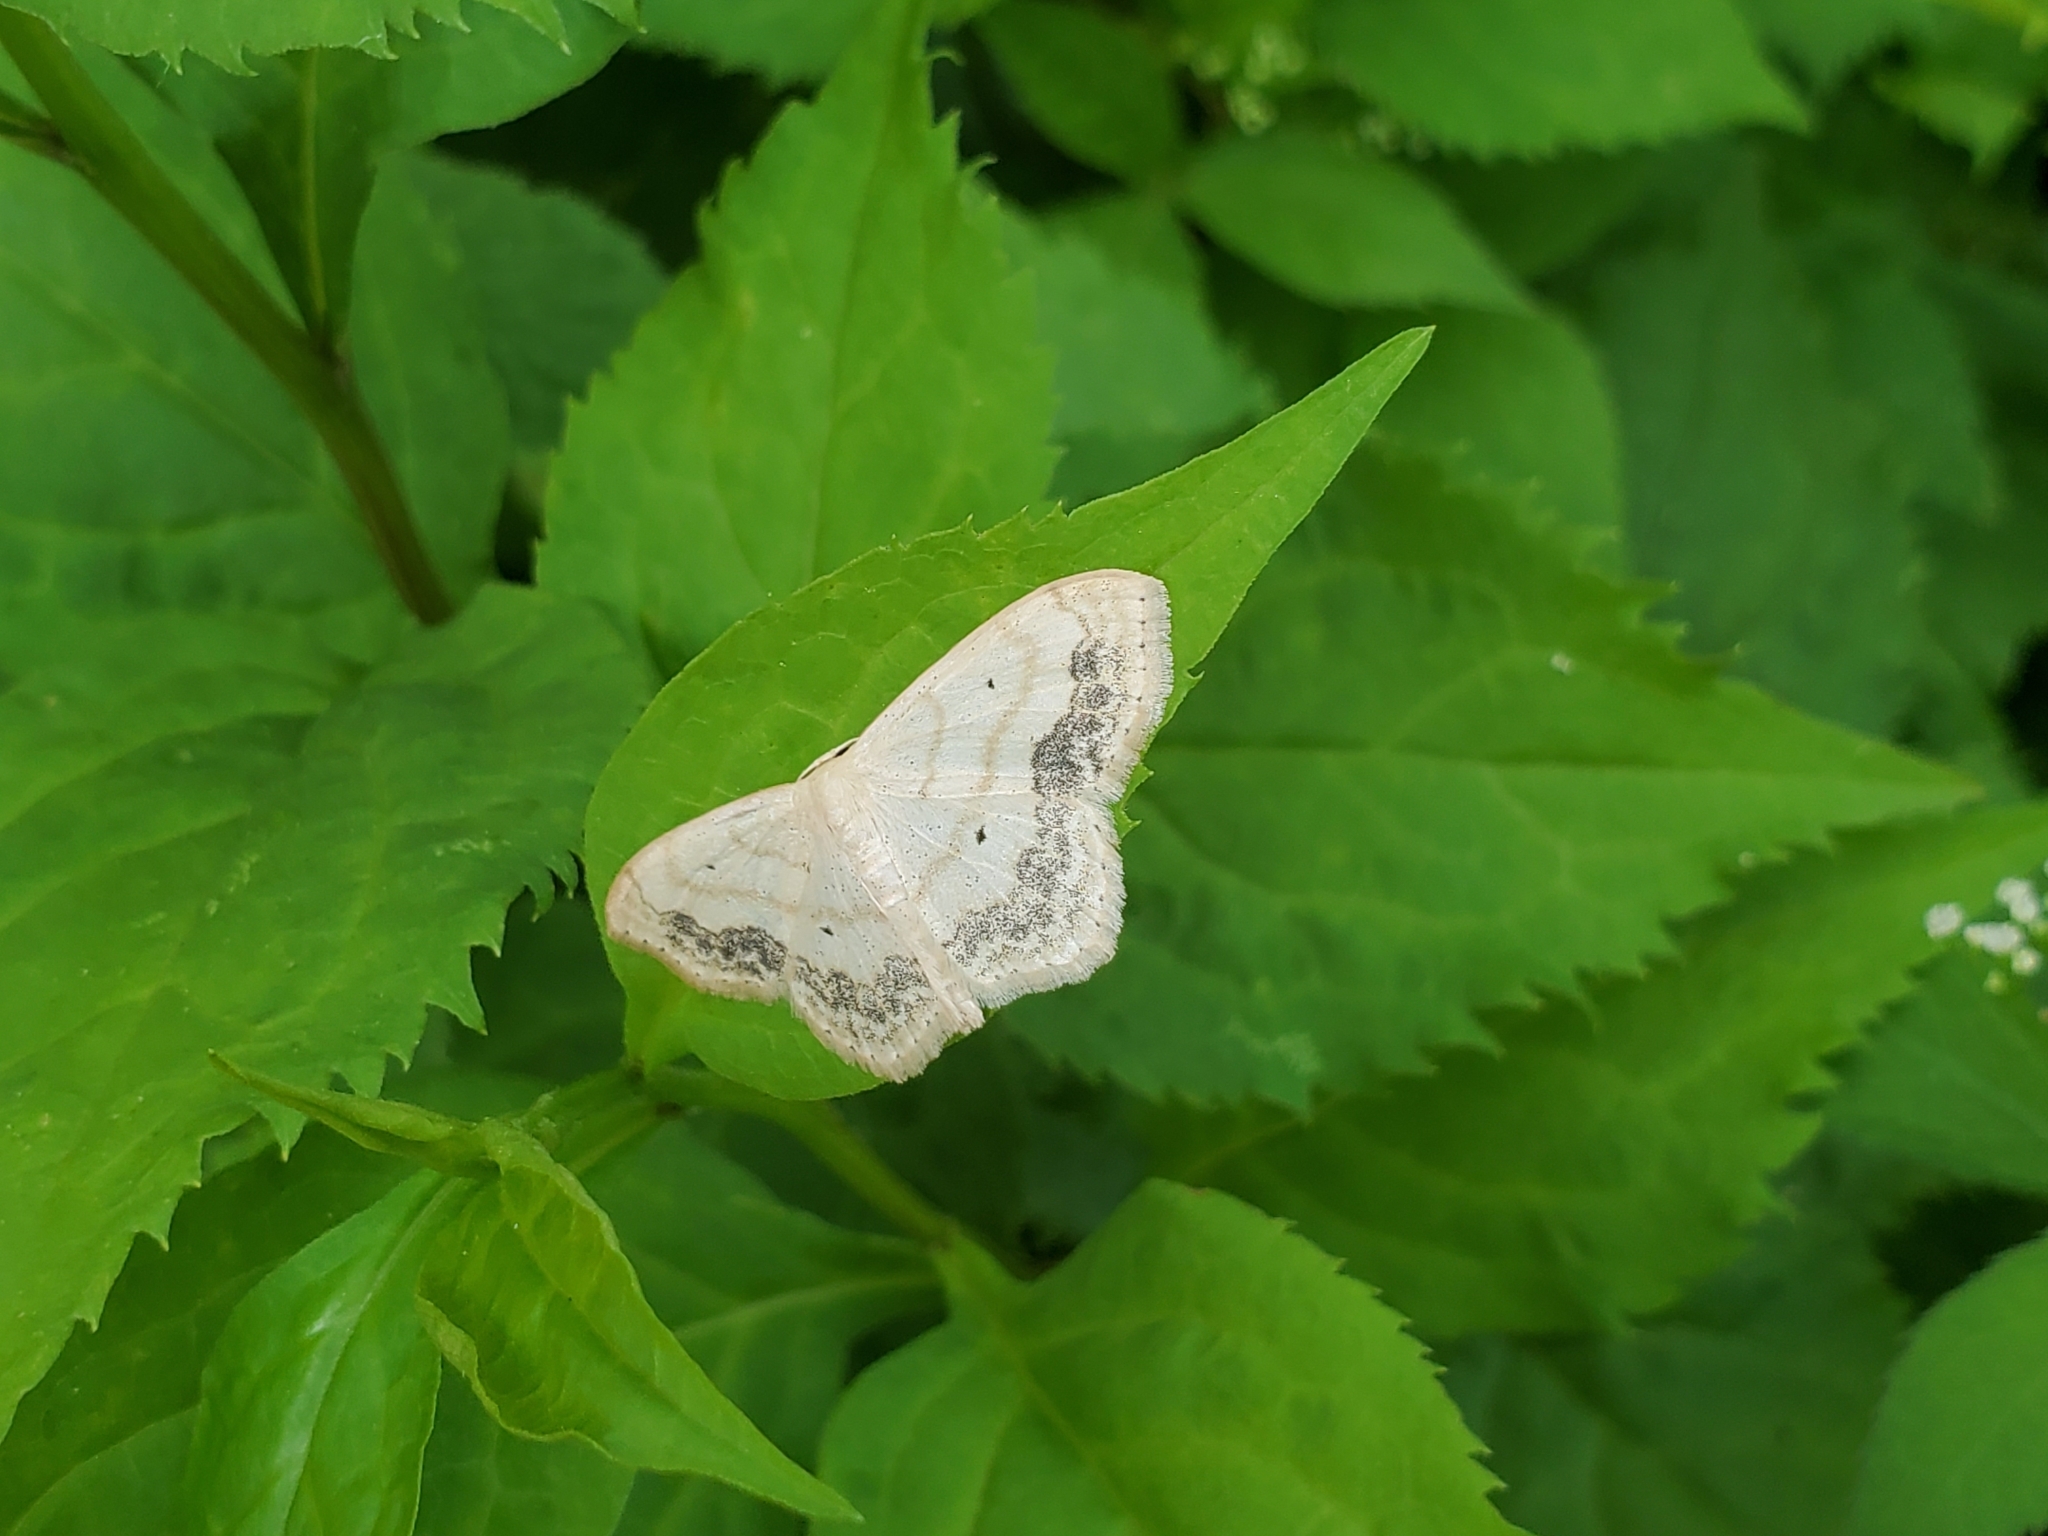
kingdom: Animalia
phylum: Arthropoda
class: Insecta
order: Lepidoptera
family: Geometridae
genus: Scopula
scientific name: Scopula limboundata
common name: Large lace border
